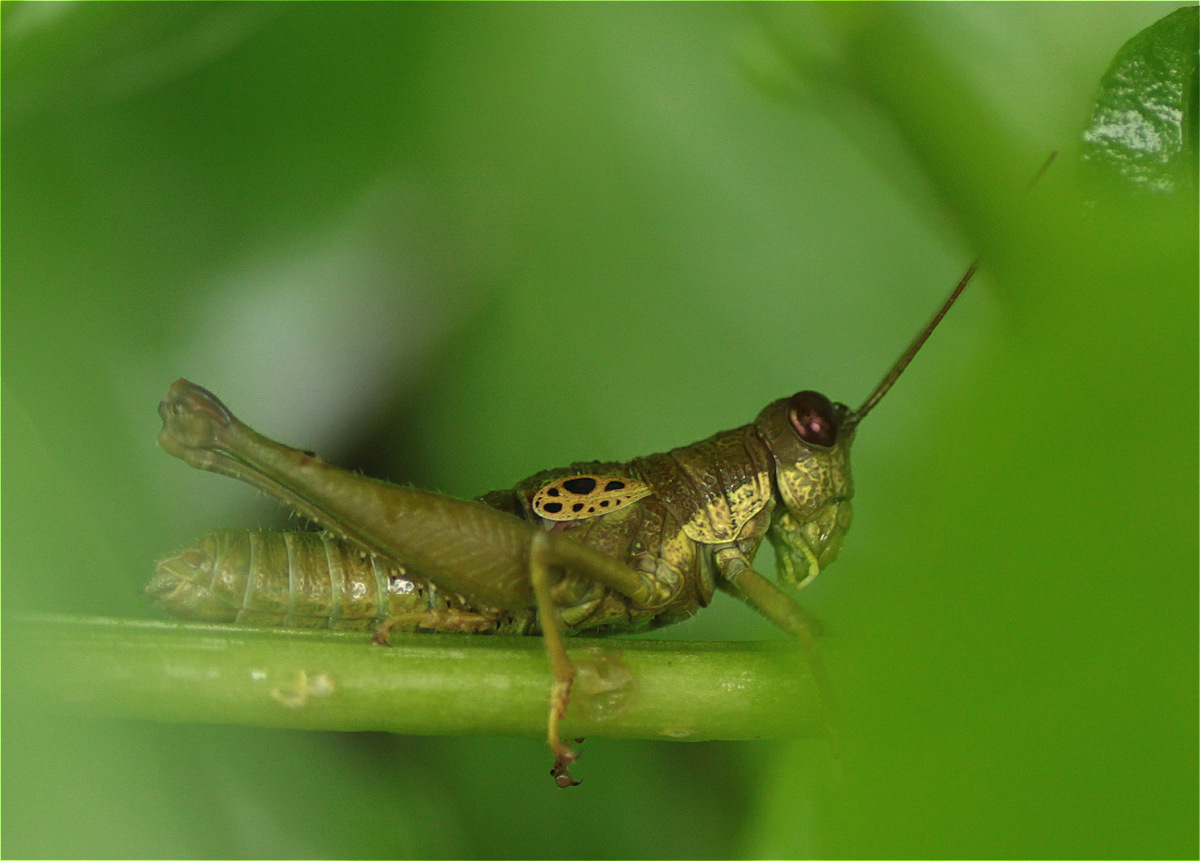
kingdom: Animalia
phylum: Arthropoda
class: Insecta
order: Orthoptera
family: Acrididae
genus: Hippariacris
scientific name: Hippariacris latona
